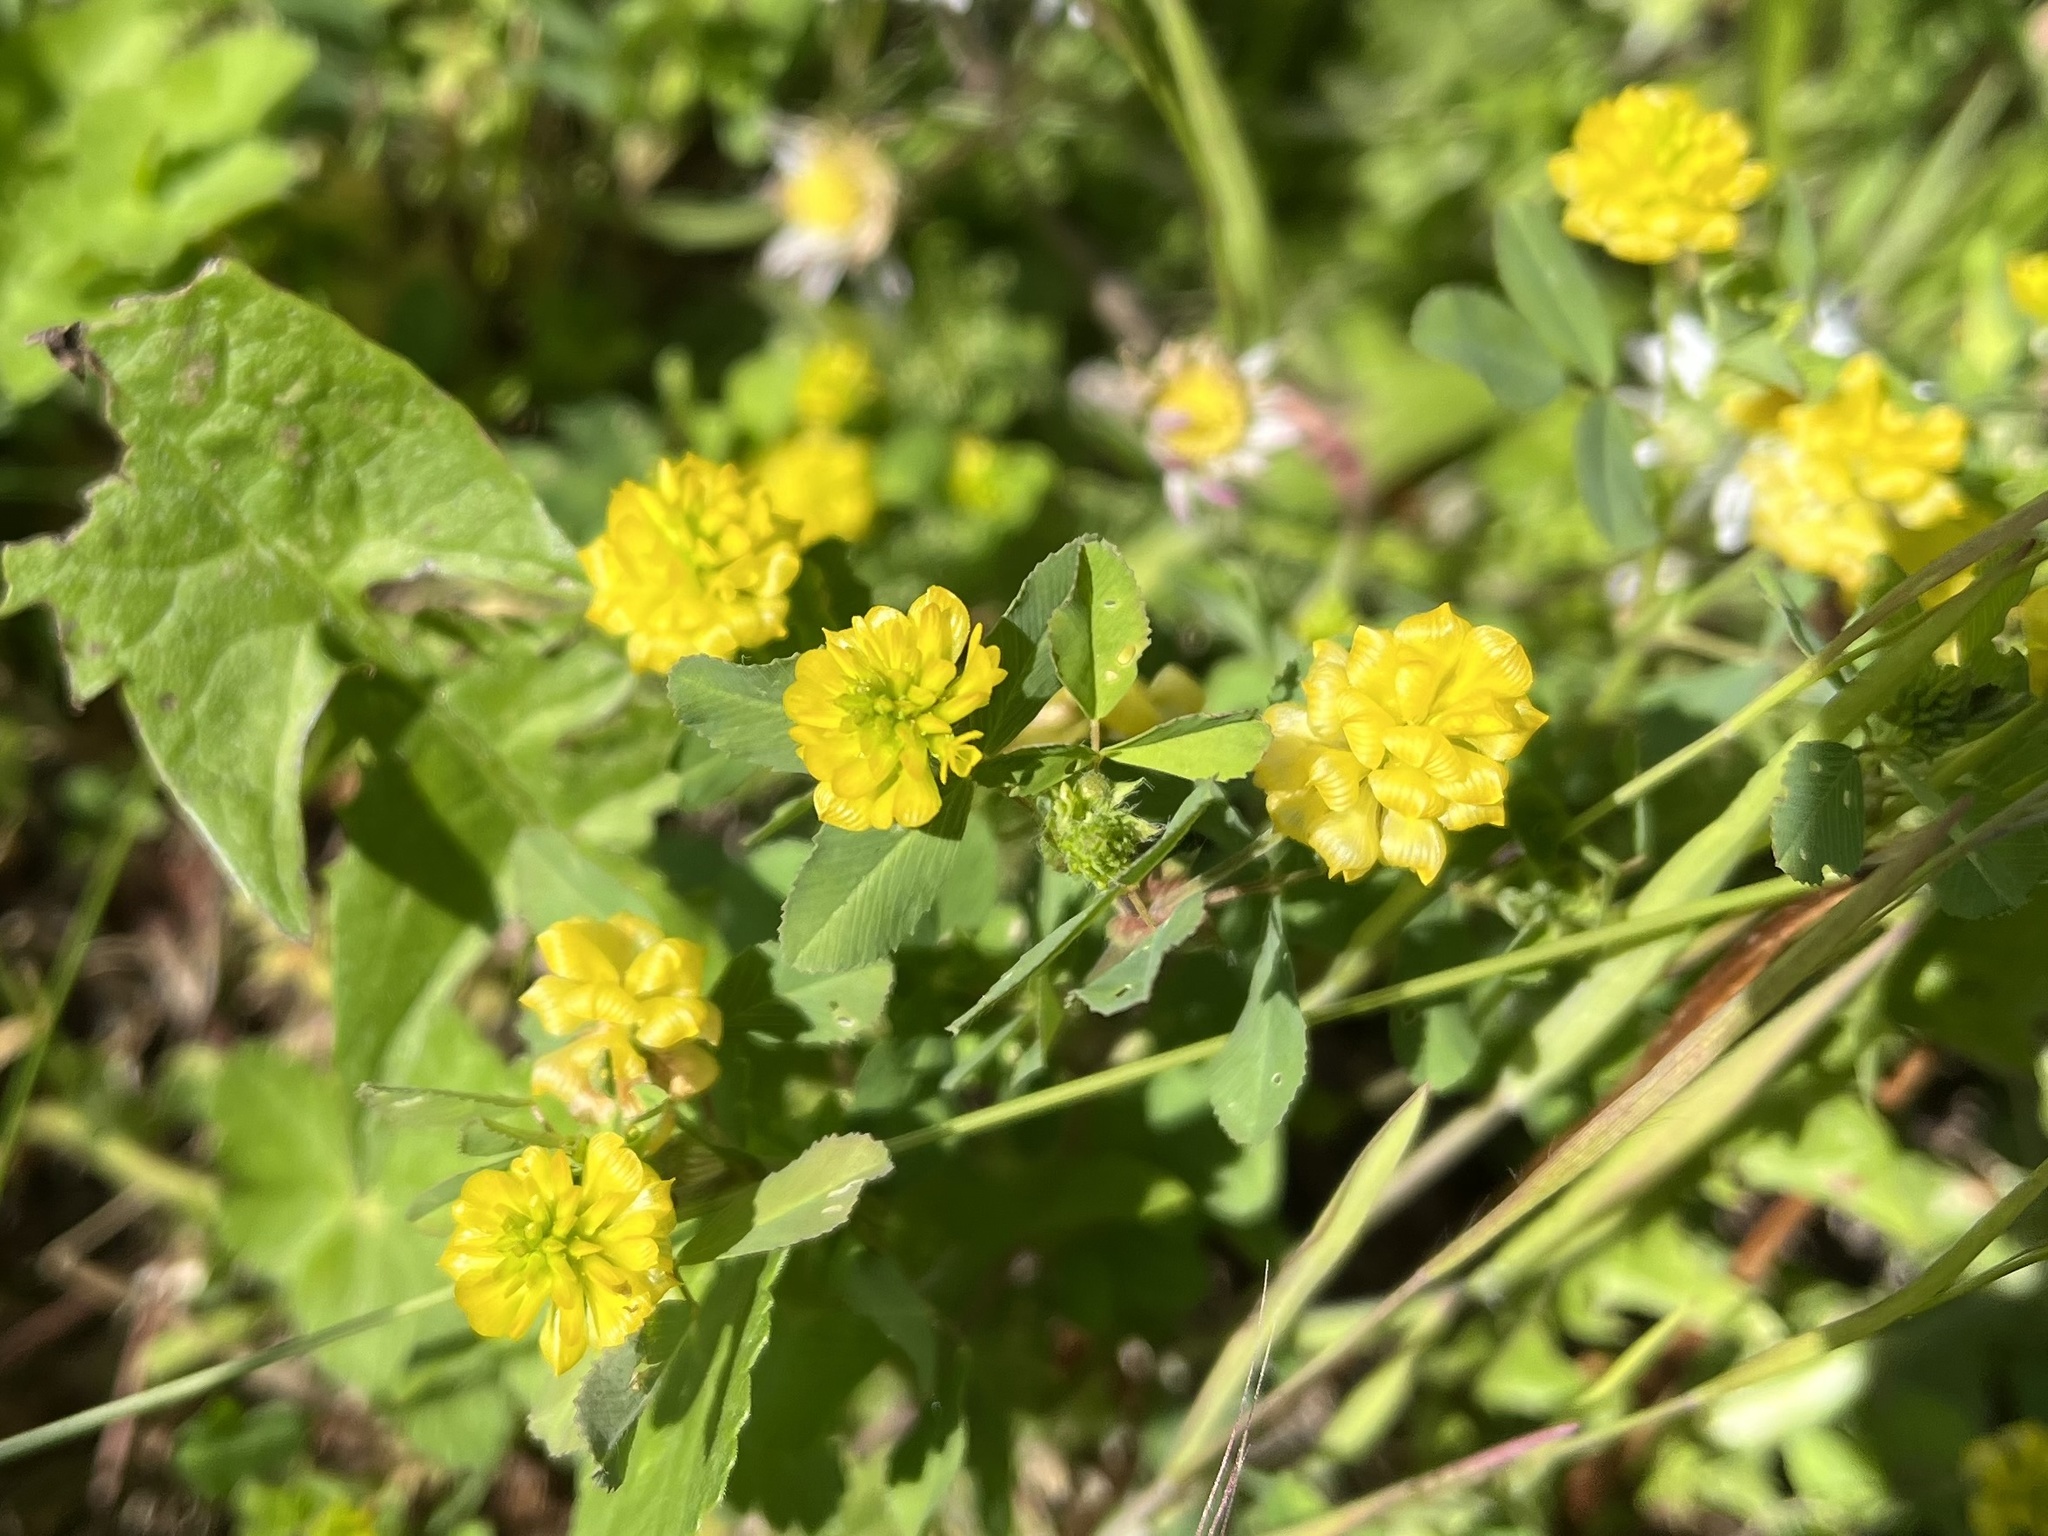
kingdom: Plantae
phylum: Tracheophyta
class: Magnoliopsida
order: Fabales
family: Fabaceae
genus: Trifolium
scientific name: Trifolium campestre
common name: Field clover
